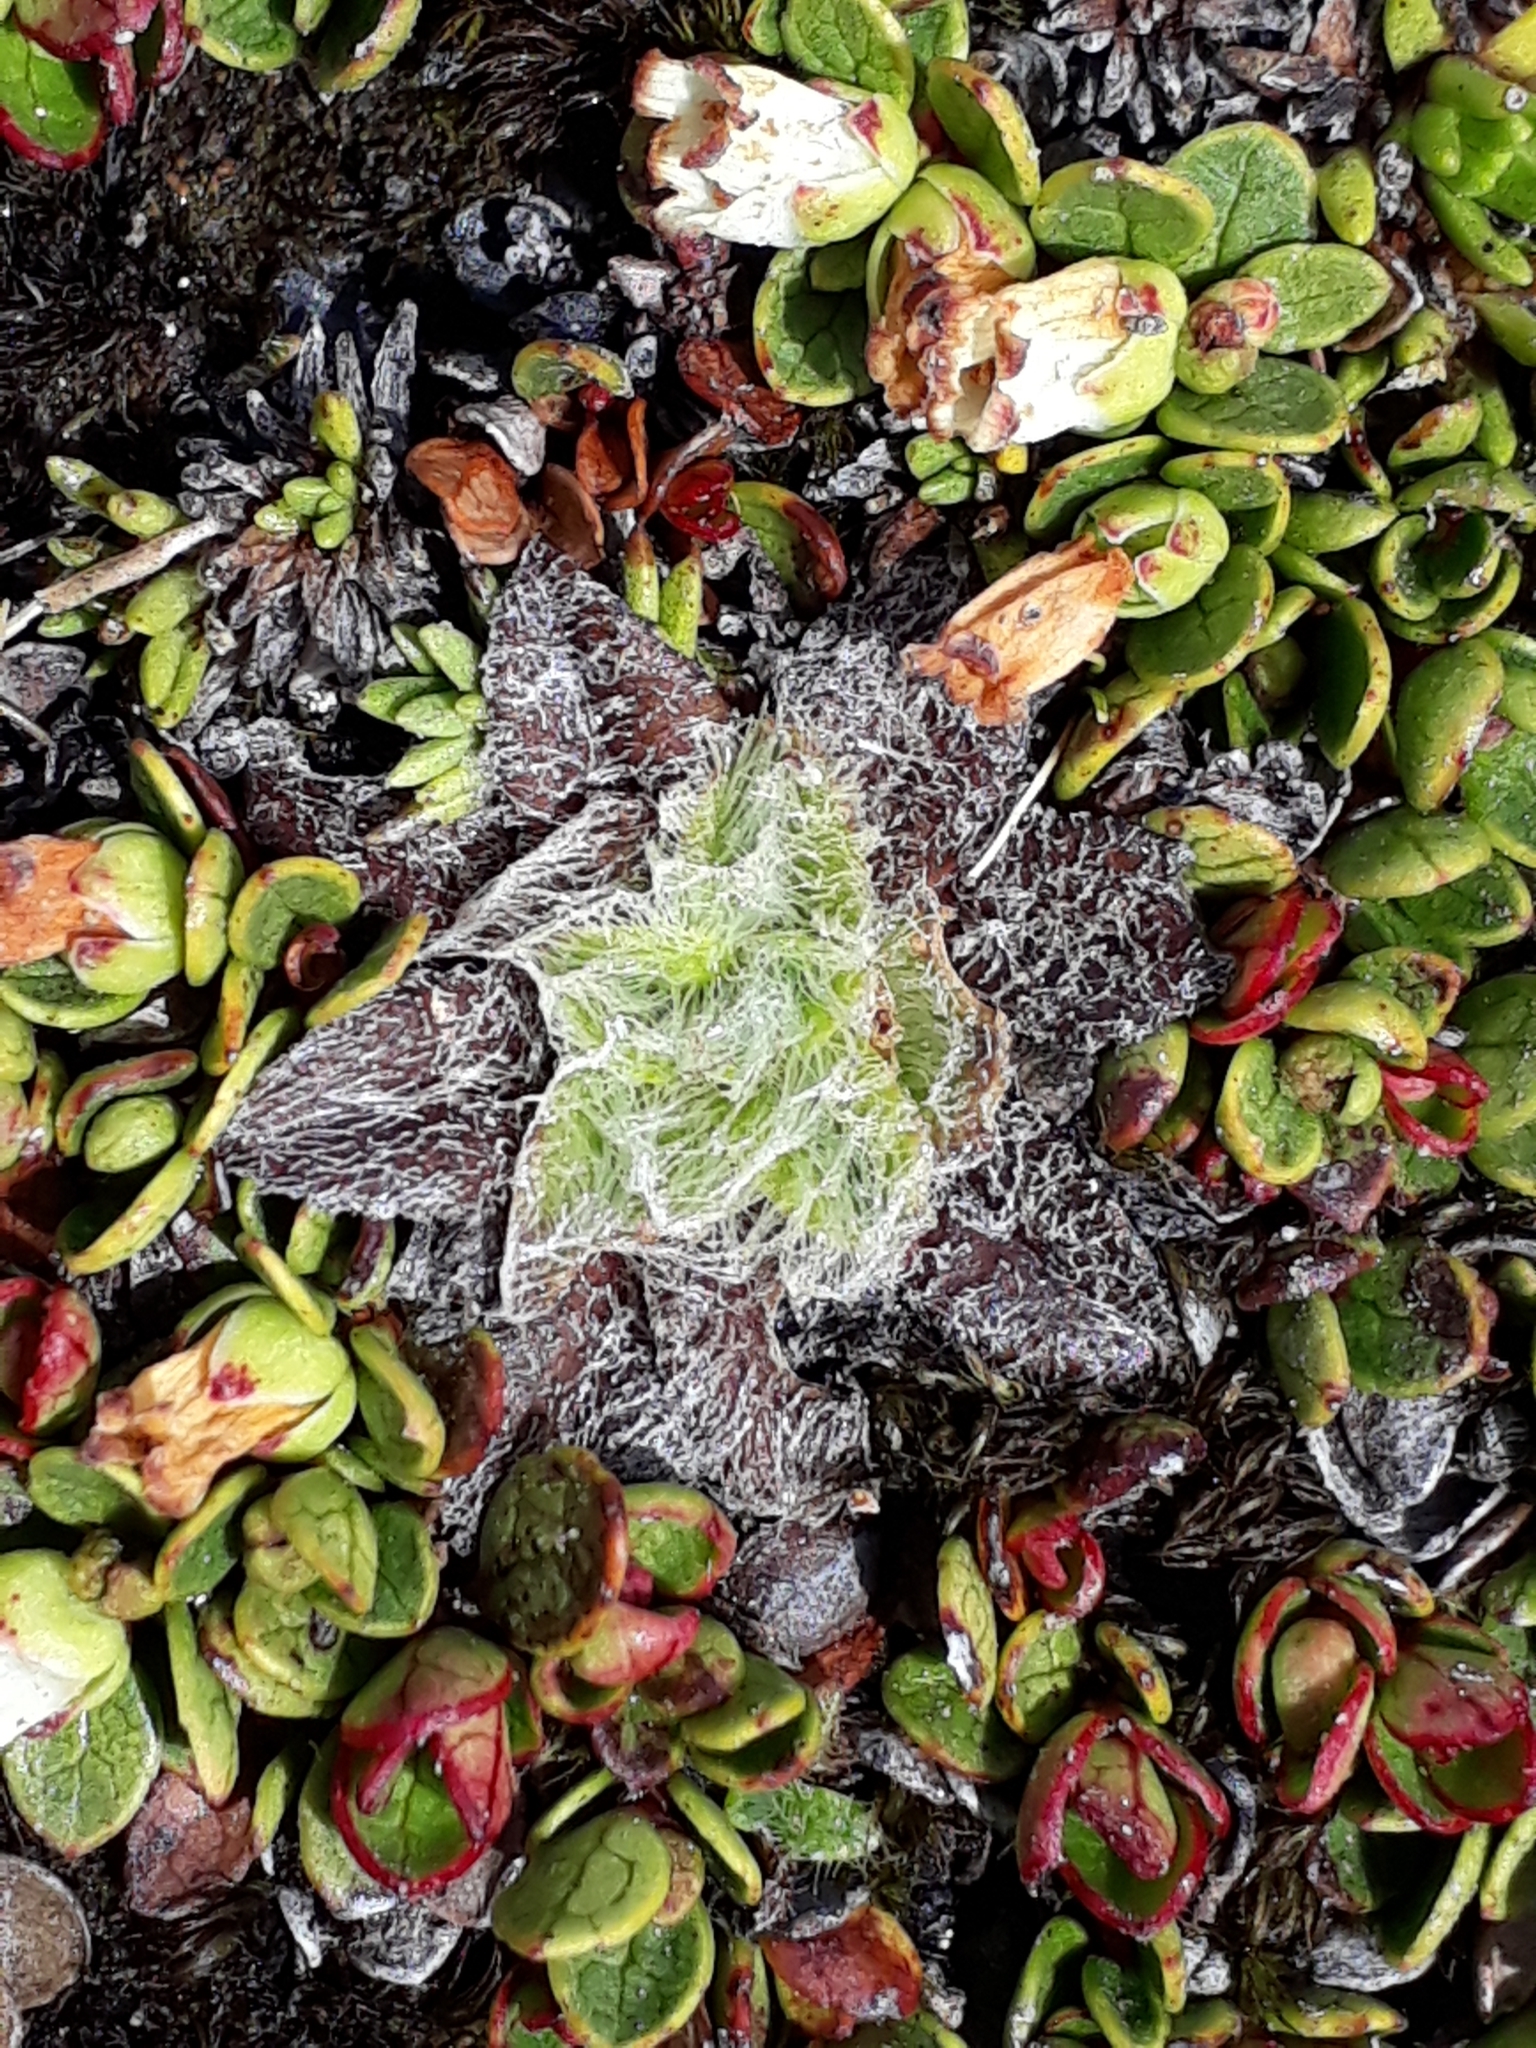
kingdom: Plantae
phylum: Tracheophyta
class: Magnoliopsida
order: Lamiales
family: Plantaginaceae
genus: Plantago
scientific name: Plantago lanigera
